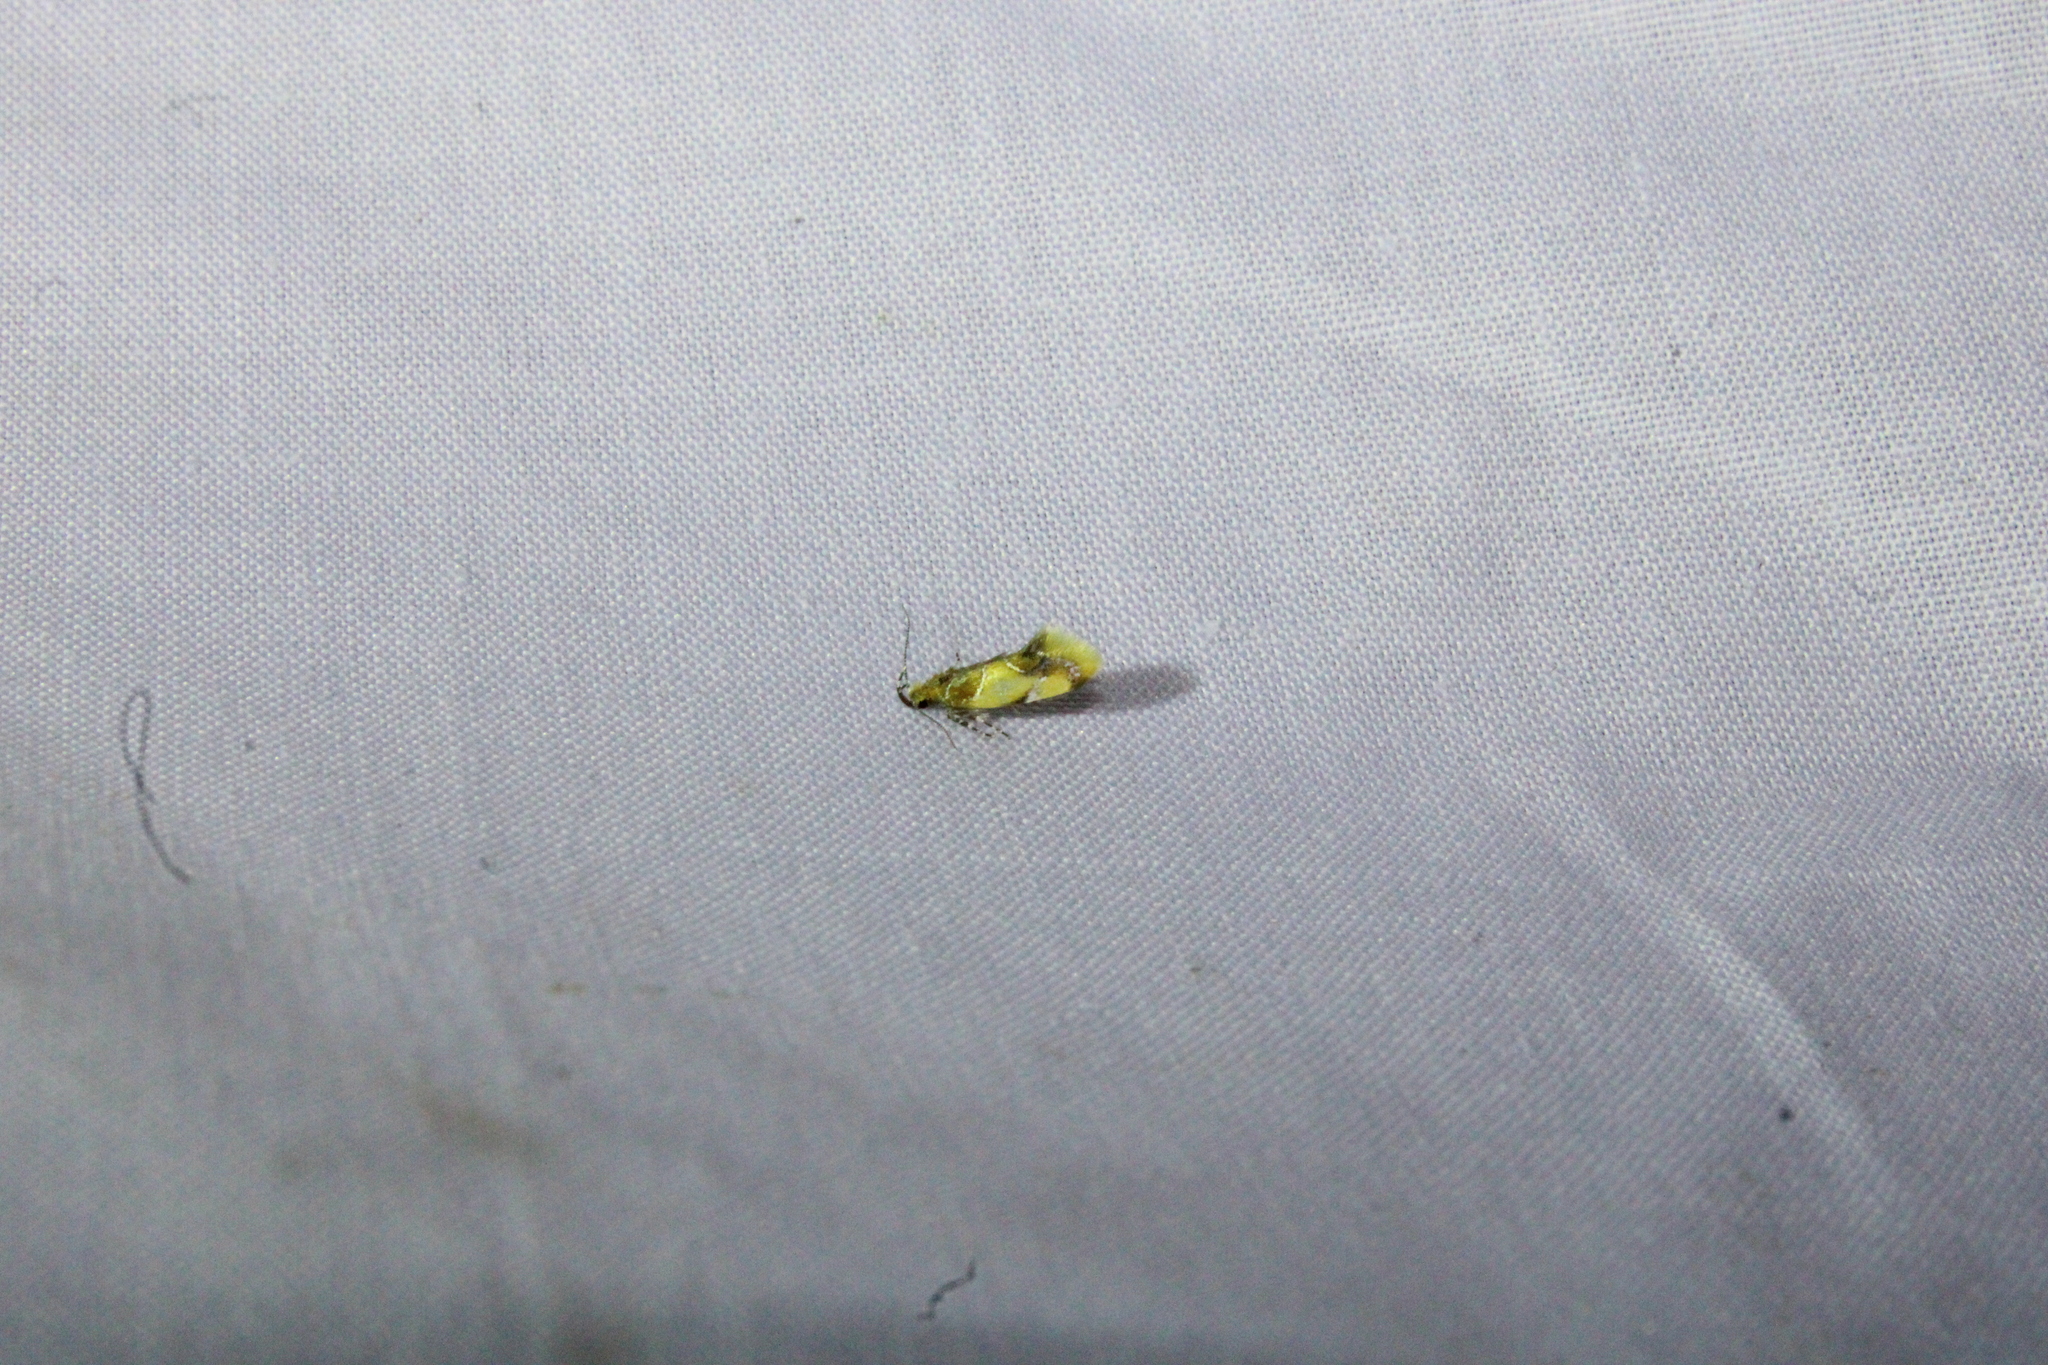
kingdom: Animalia
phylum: Arthropoda
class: Insecta
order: Lepidoptera
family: Oecophoridae
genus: Callima
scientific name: Callima argenticinctella
